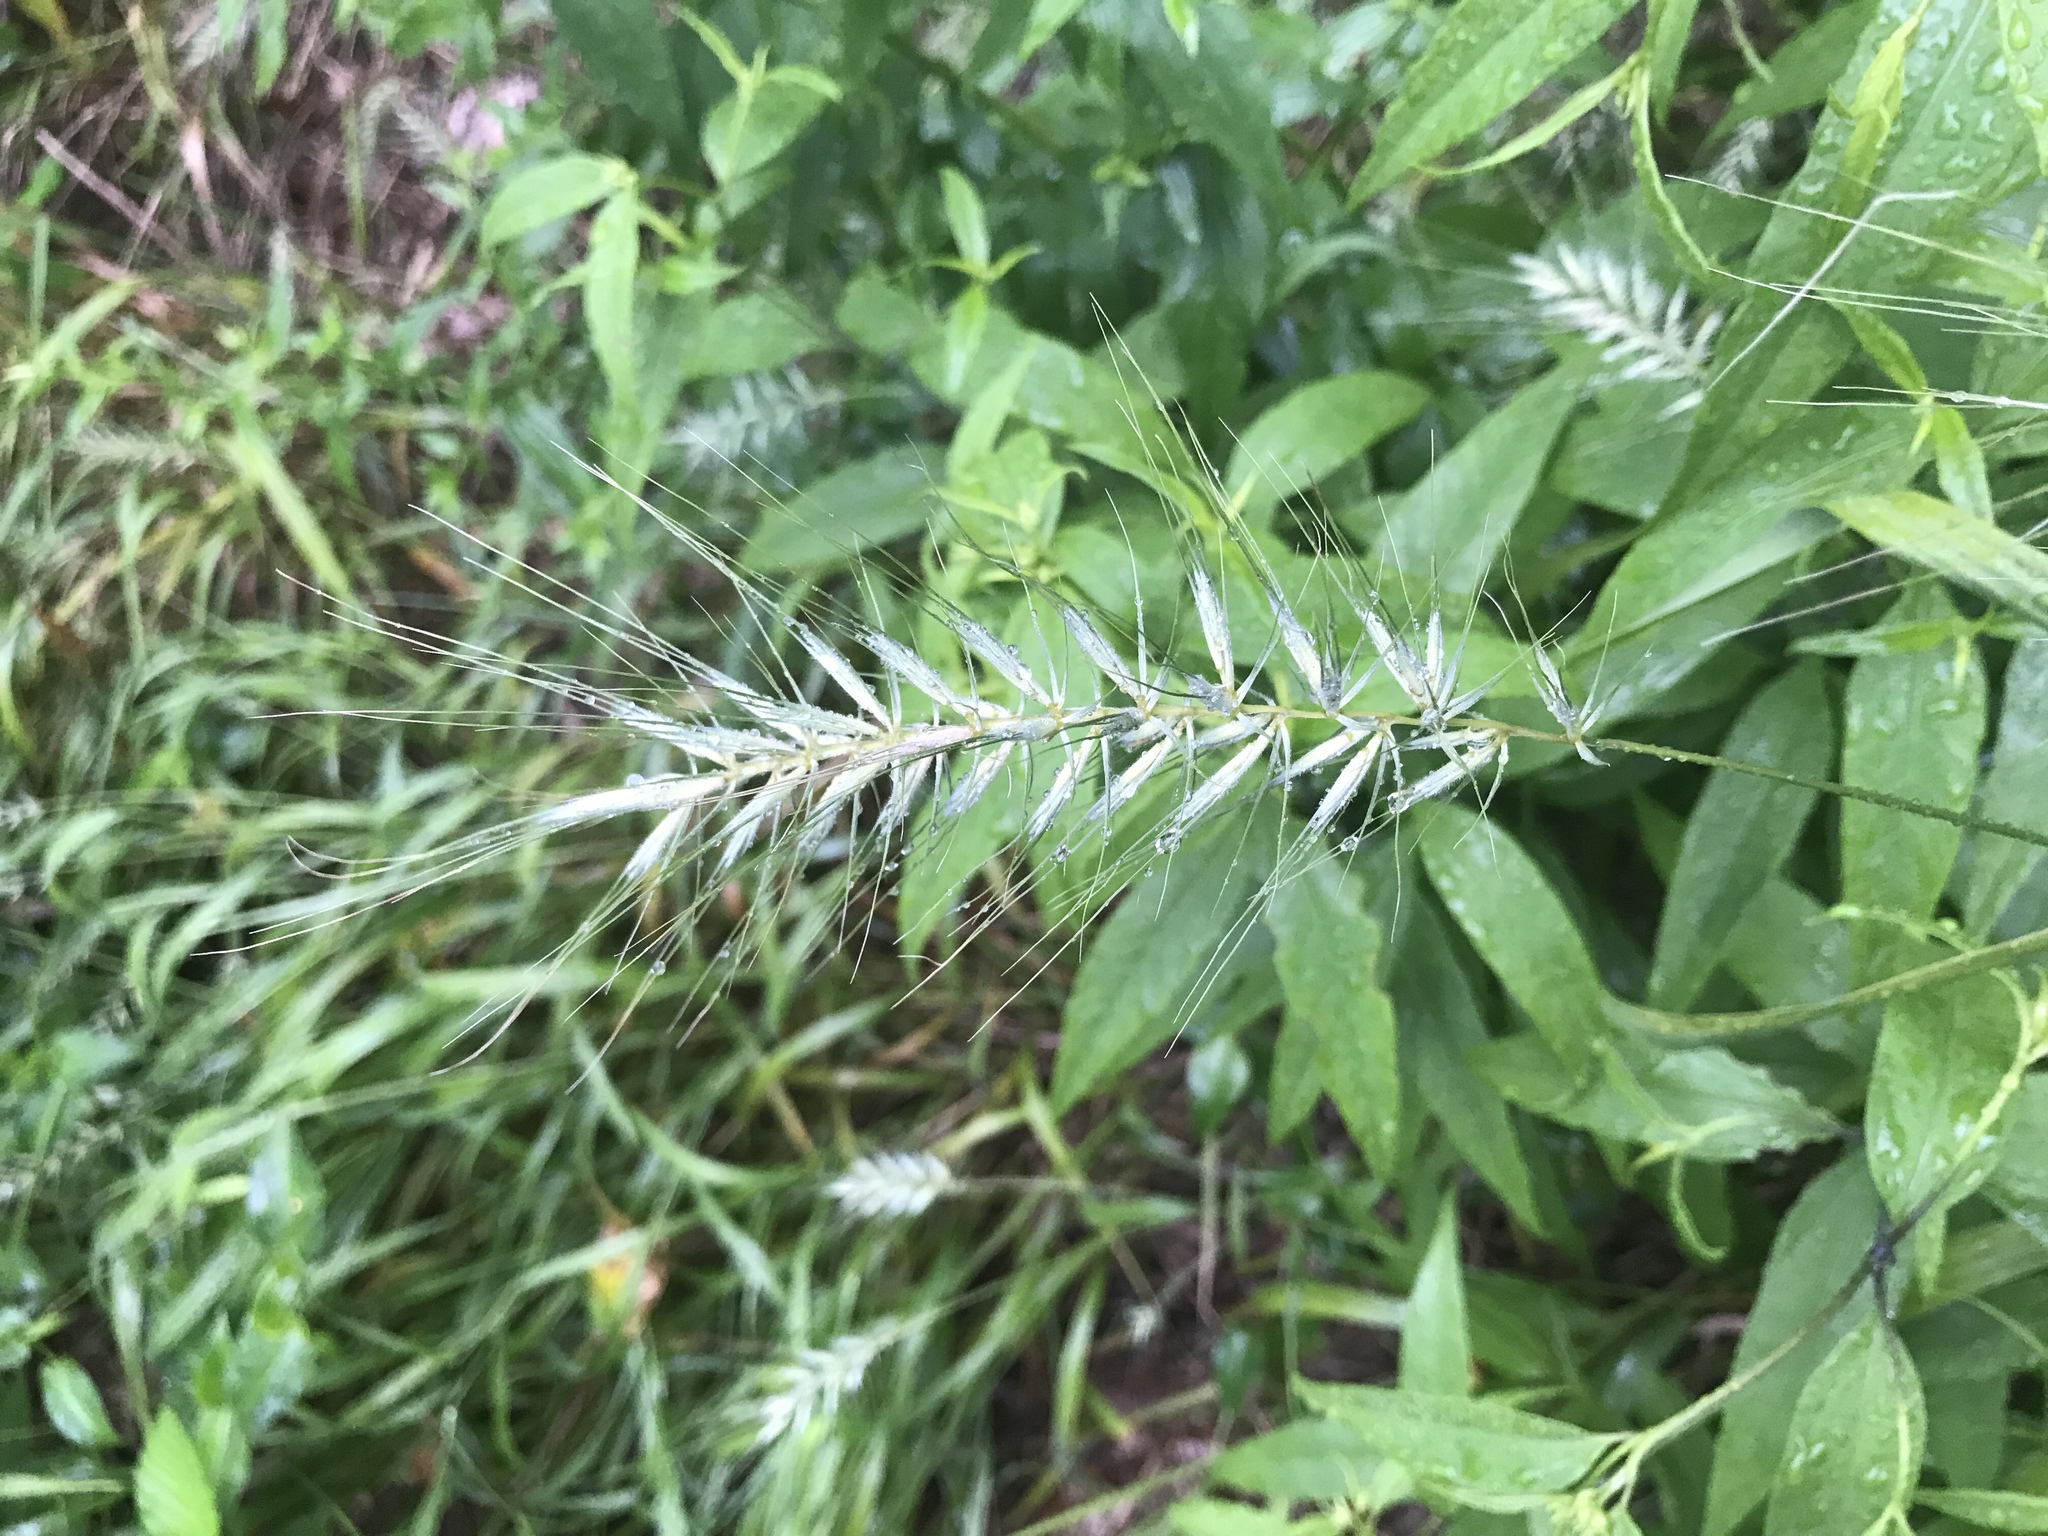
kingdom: Plantae
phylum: Tracheophyta
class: Liliopsida
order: Poales
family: Poaceae
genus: Elymus
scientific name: Elymus hystrix
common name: Bottlebrush grass
